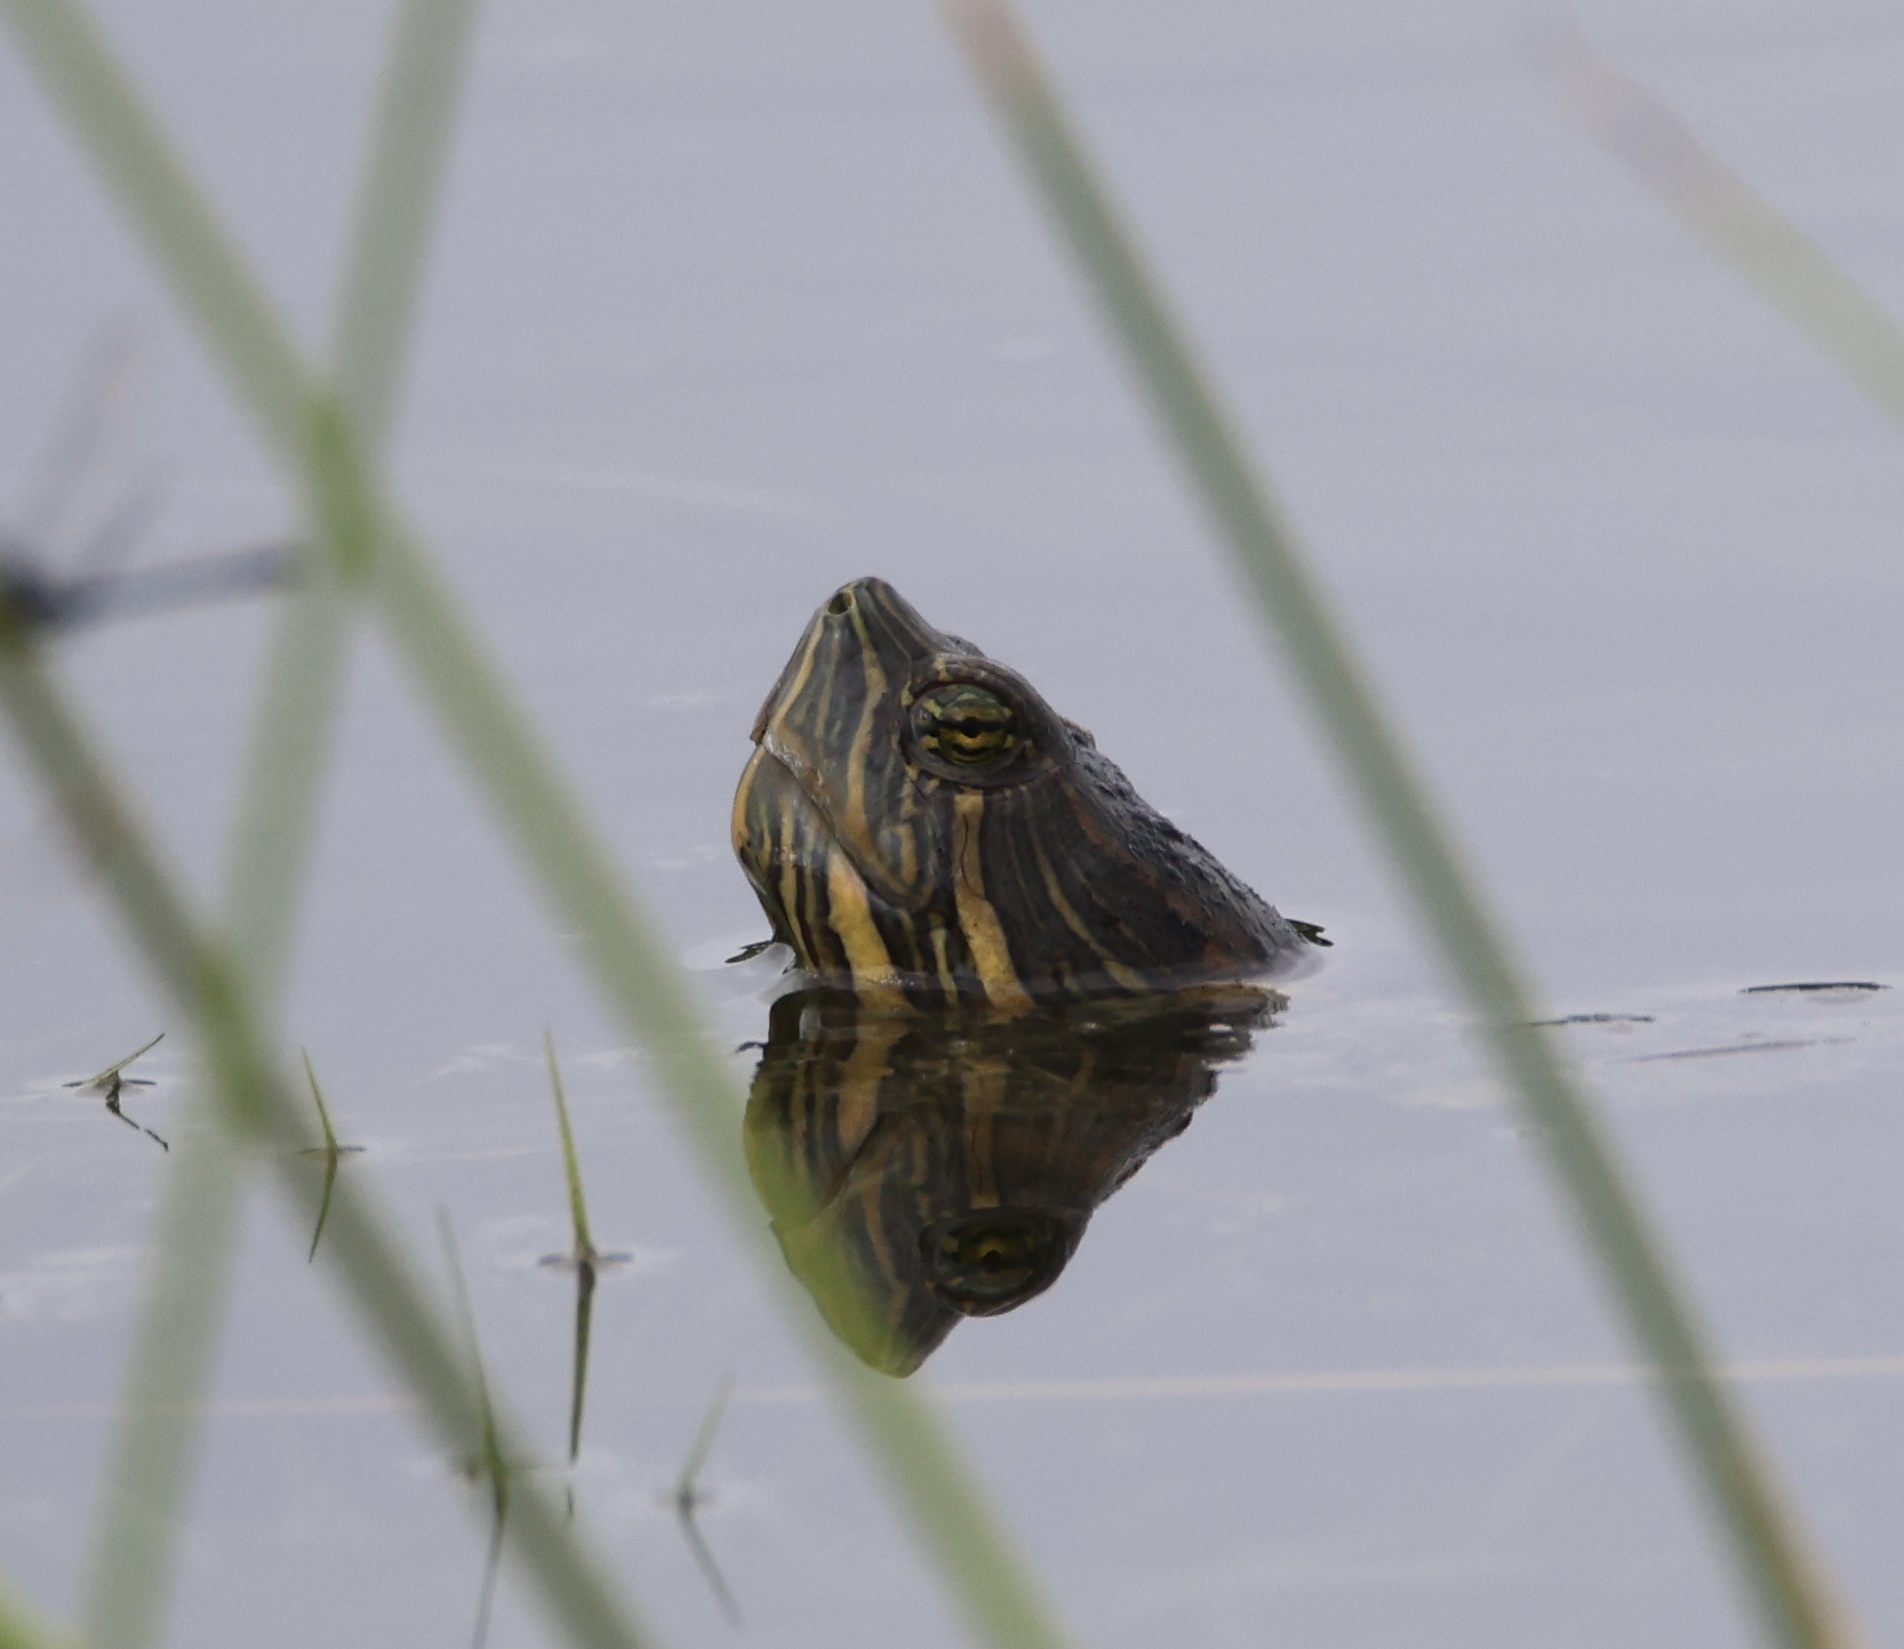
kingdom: Animalia
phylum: Chordata
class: Testudines
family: Emydidae
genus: Trachemys
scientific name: Trachemys grayi
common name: Gray's slider
